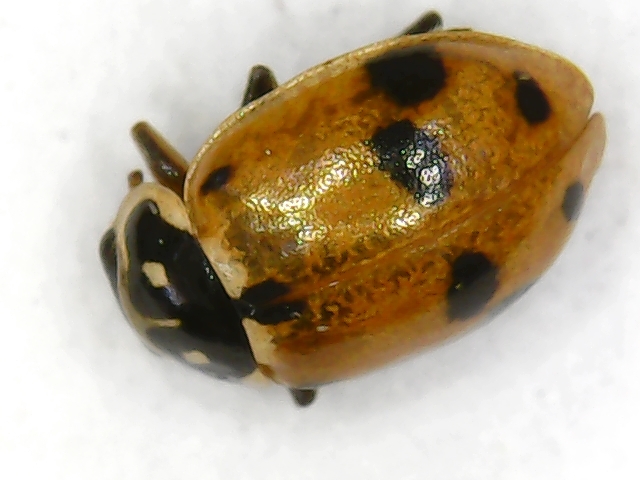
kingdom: Animalia
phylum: Arthropoda
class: Insecta
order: Coleoptera
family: Coccinellidae
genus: Hippodamia
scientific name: Hippodamia variegata
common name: Ladybird beetle
